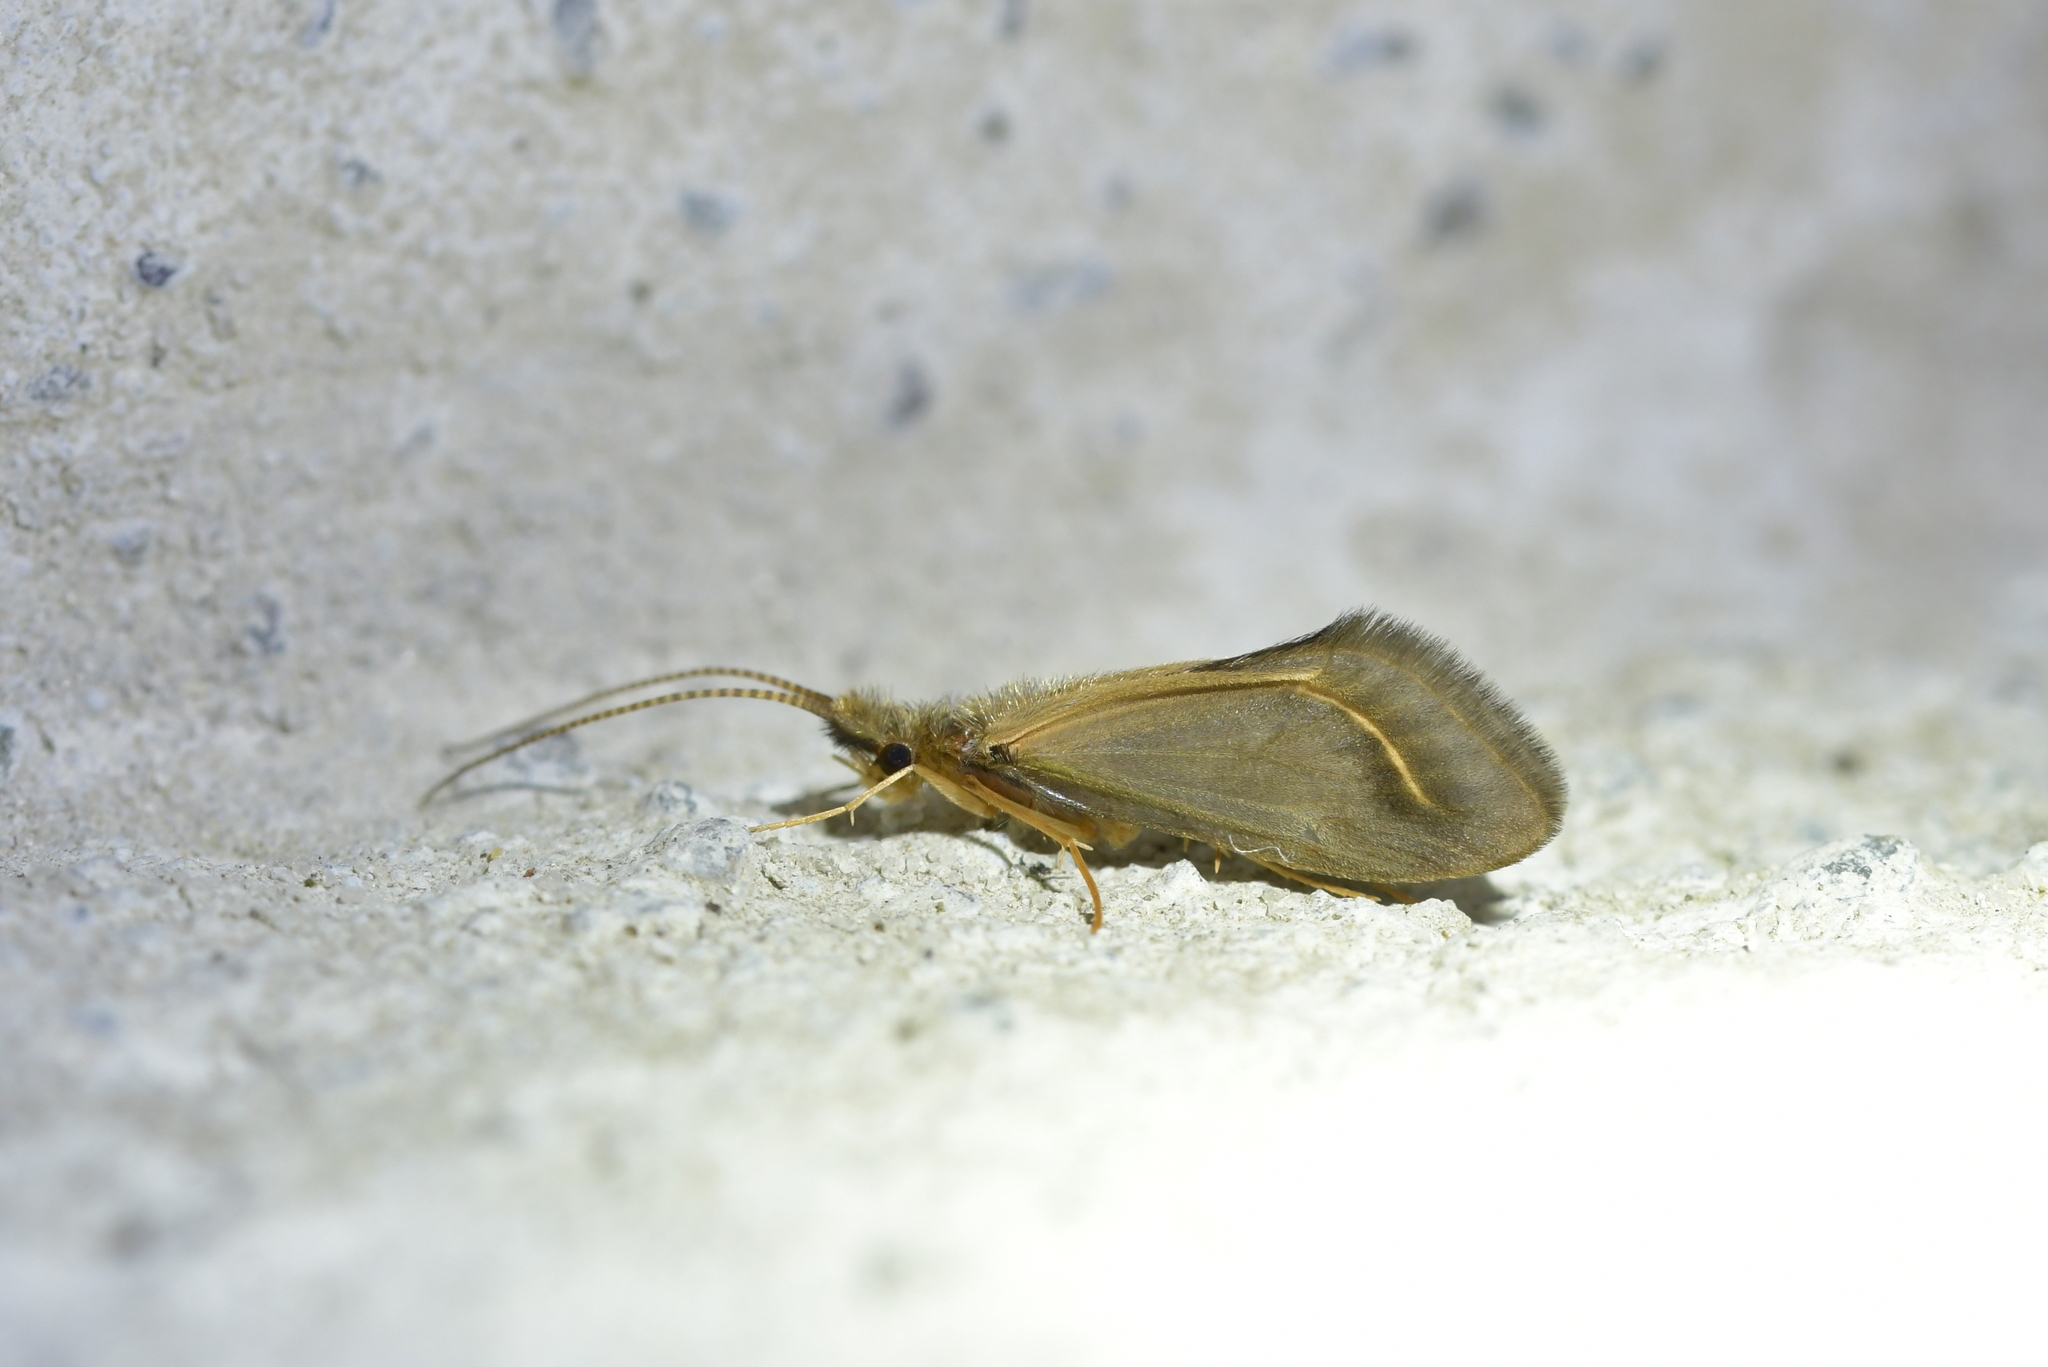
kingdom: Animalia
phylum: Arthropoda
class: Insecta
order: Trichoptera
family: Conoesucidae
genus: Olinga
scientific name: Olinga feredayi
